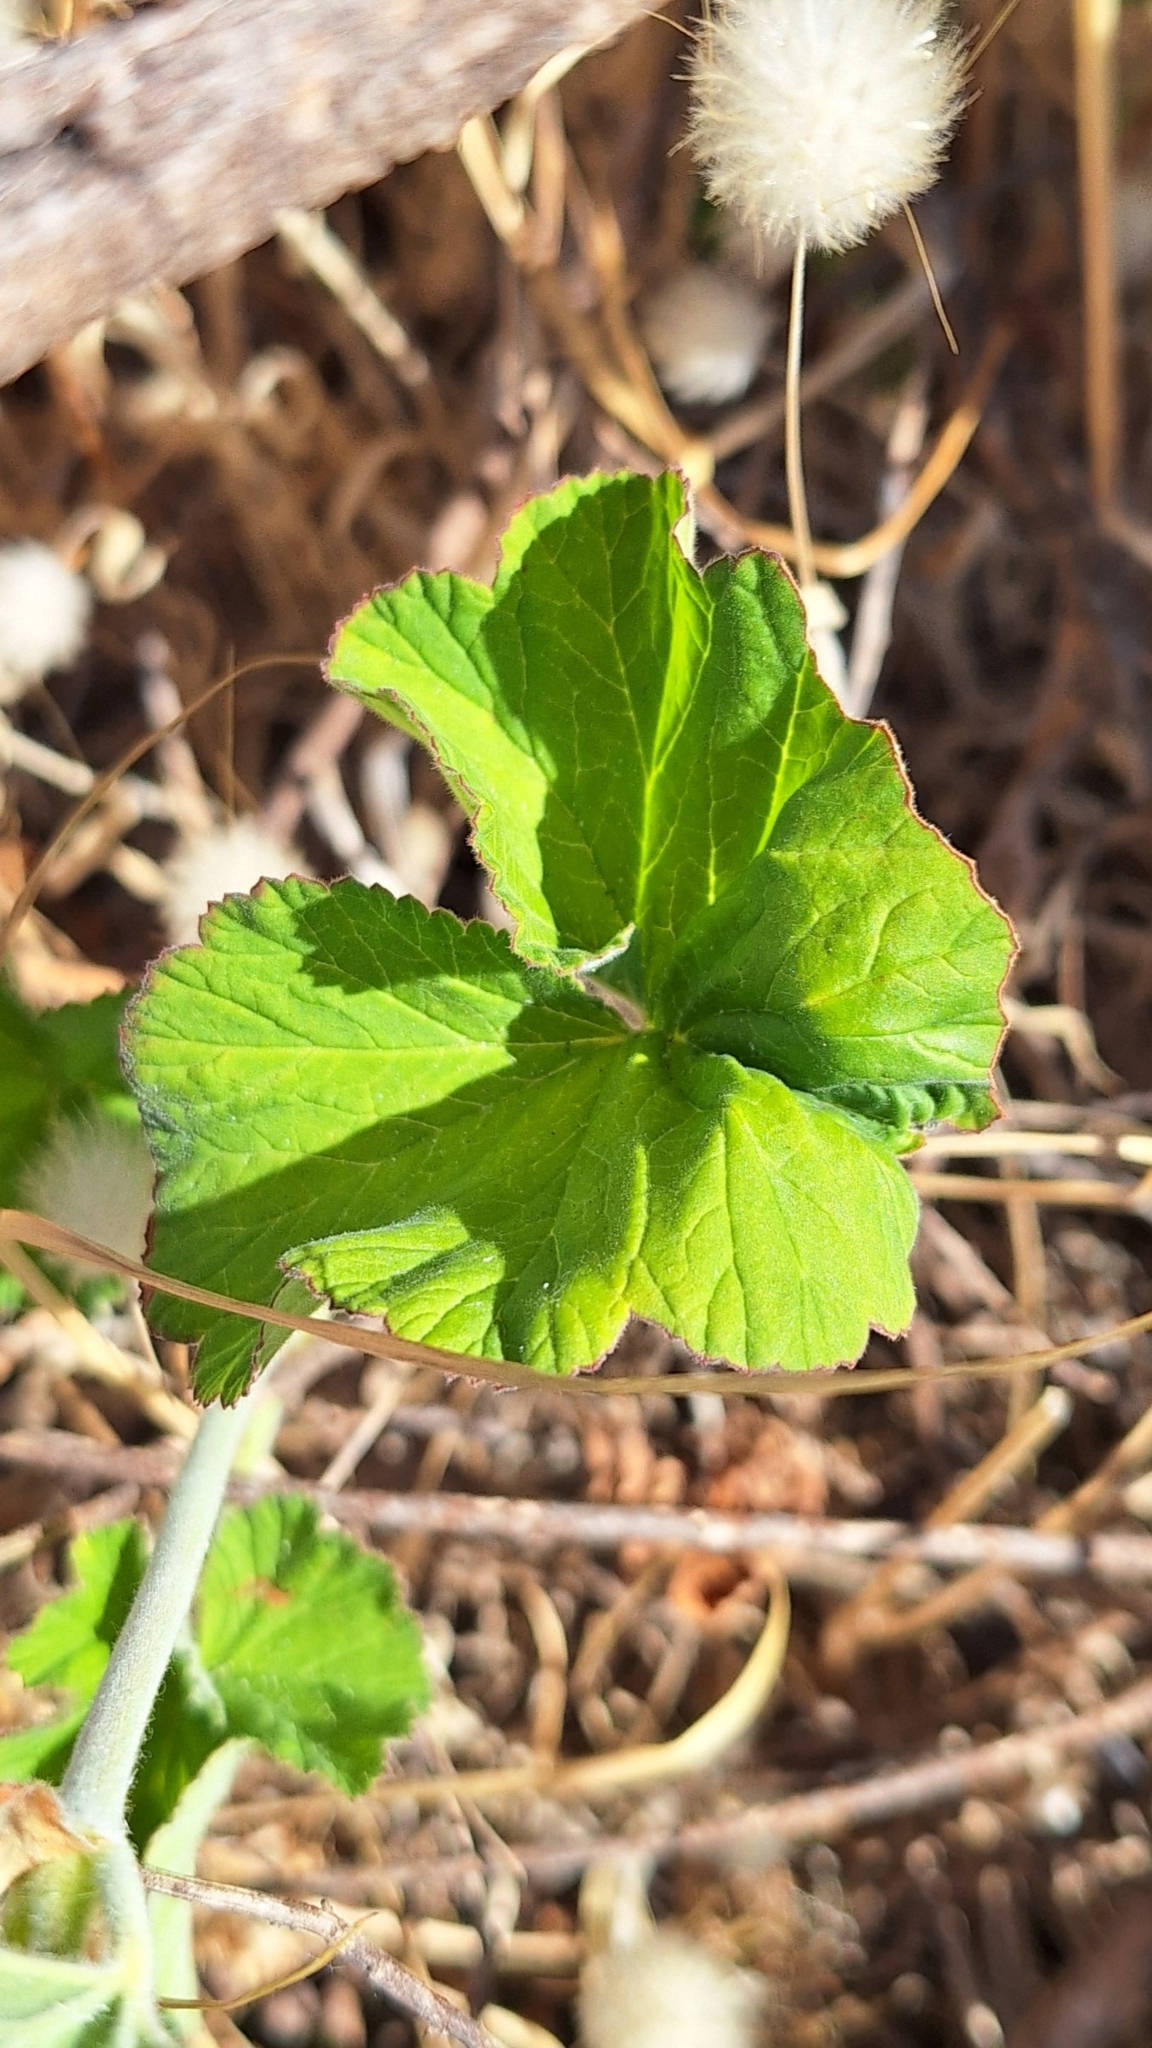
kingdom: Plantae
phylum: Tracheophyta
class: Magnoliopsida
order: Geraniales
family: Geraniaceae
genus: Pelargonium
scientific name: Pelargonium australe
